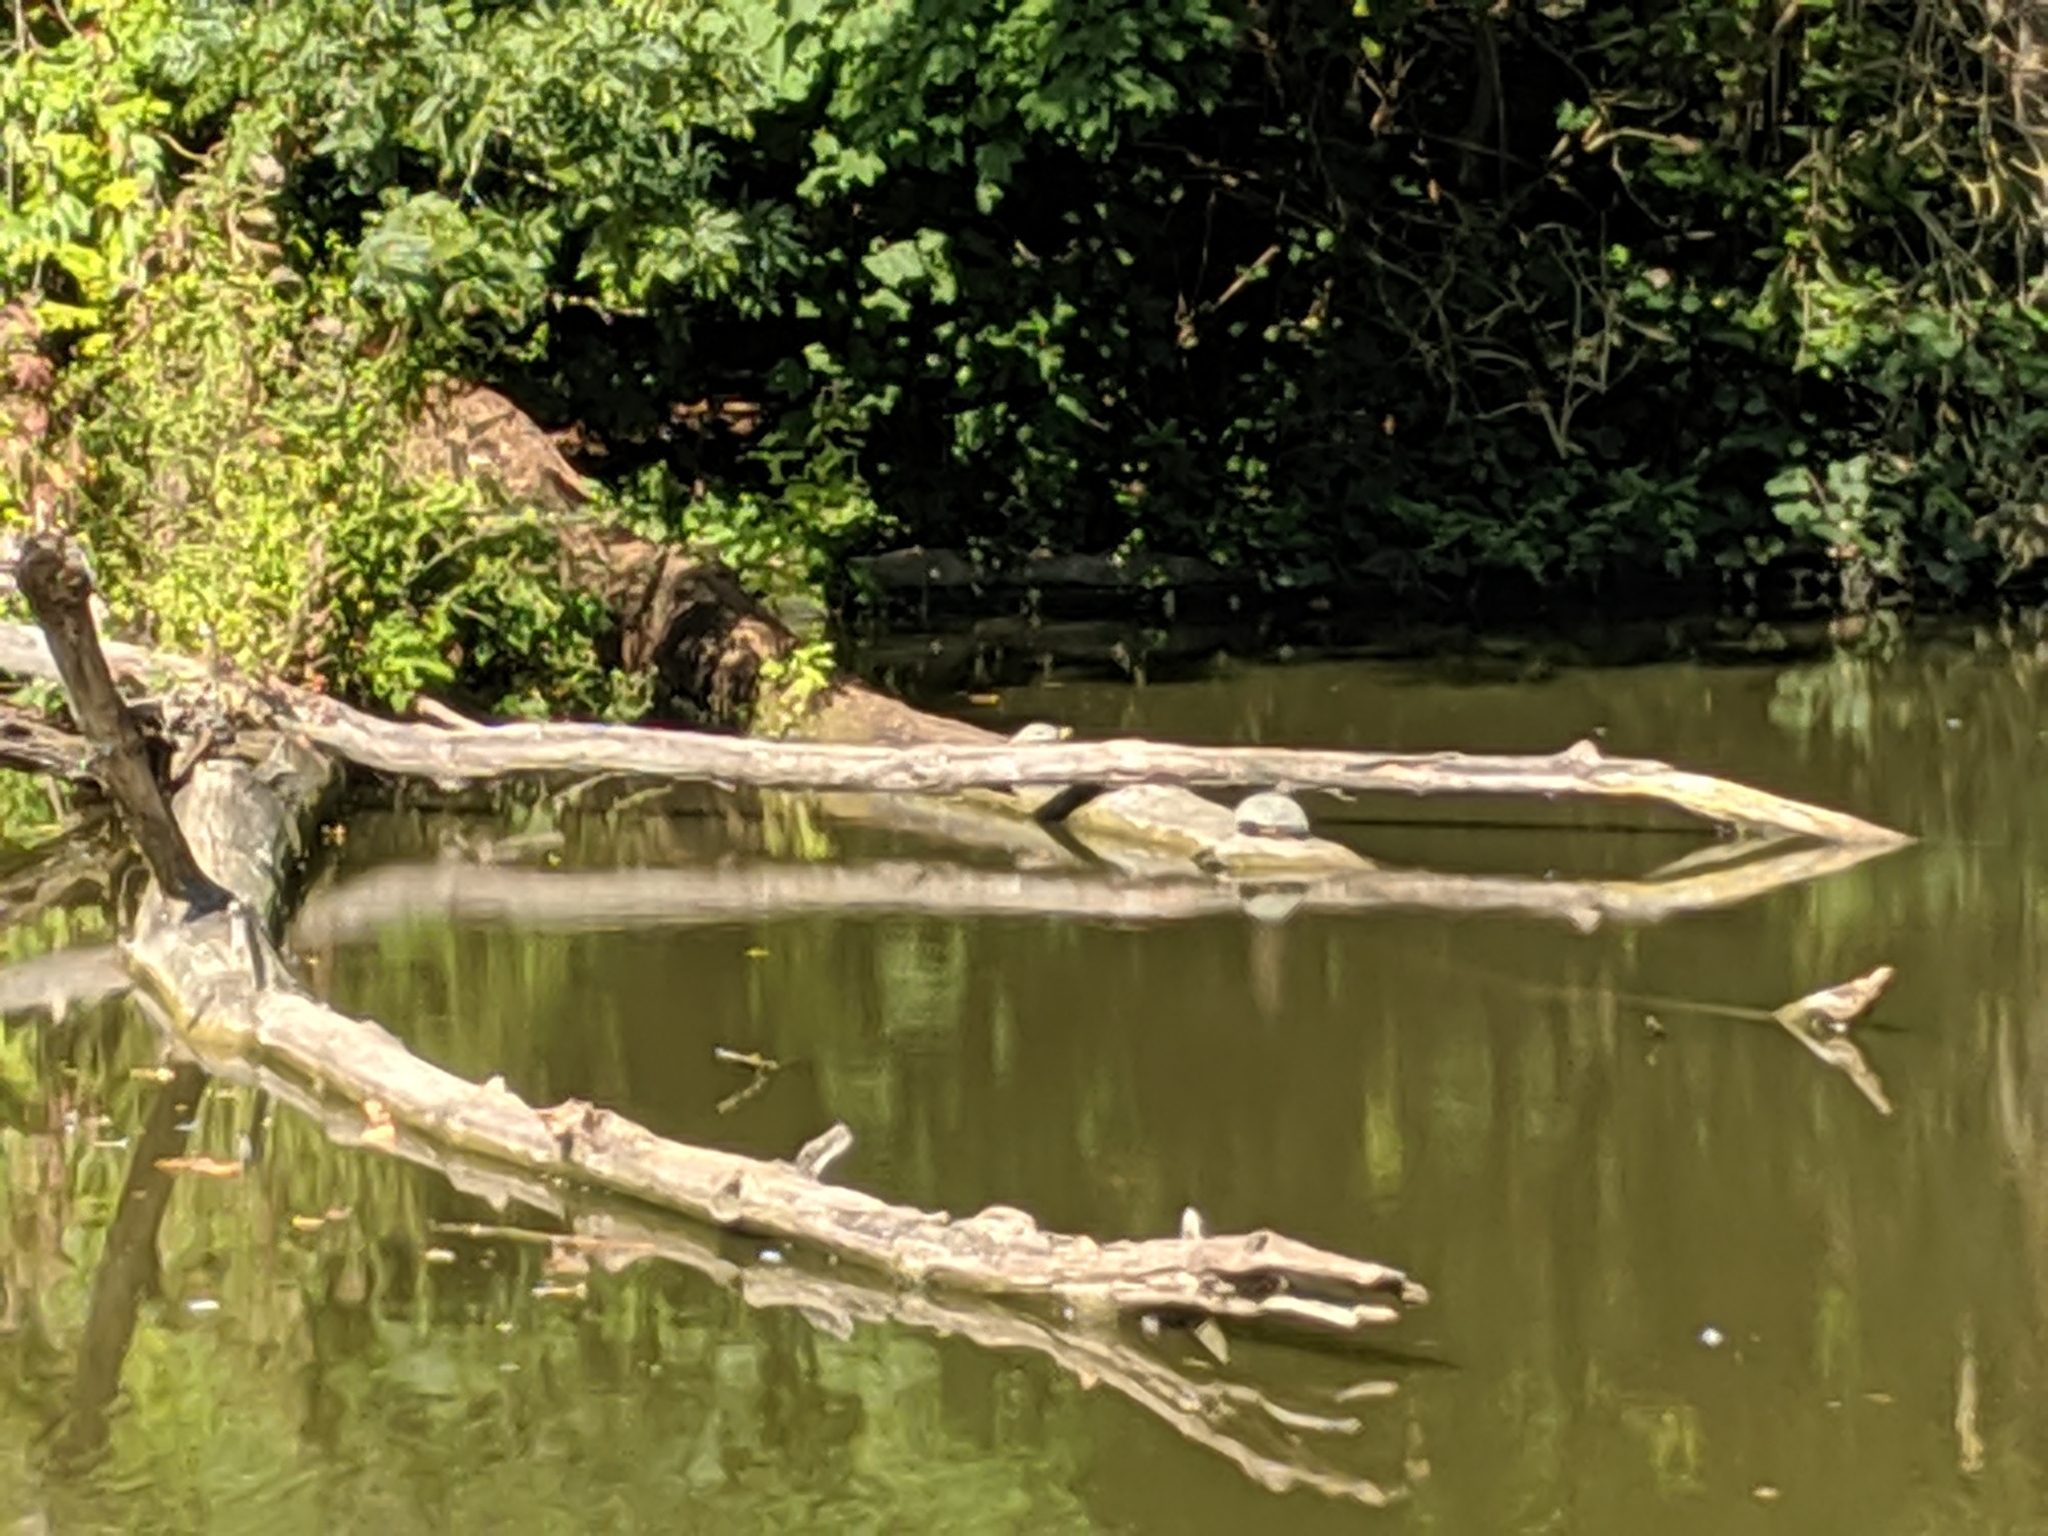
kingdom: Animalia
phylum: Chordata
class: Testudines
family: Emydidae
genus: Trachemys
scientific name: Trachemys scripta
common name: Slider
